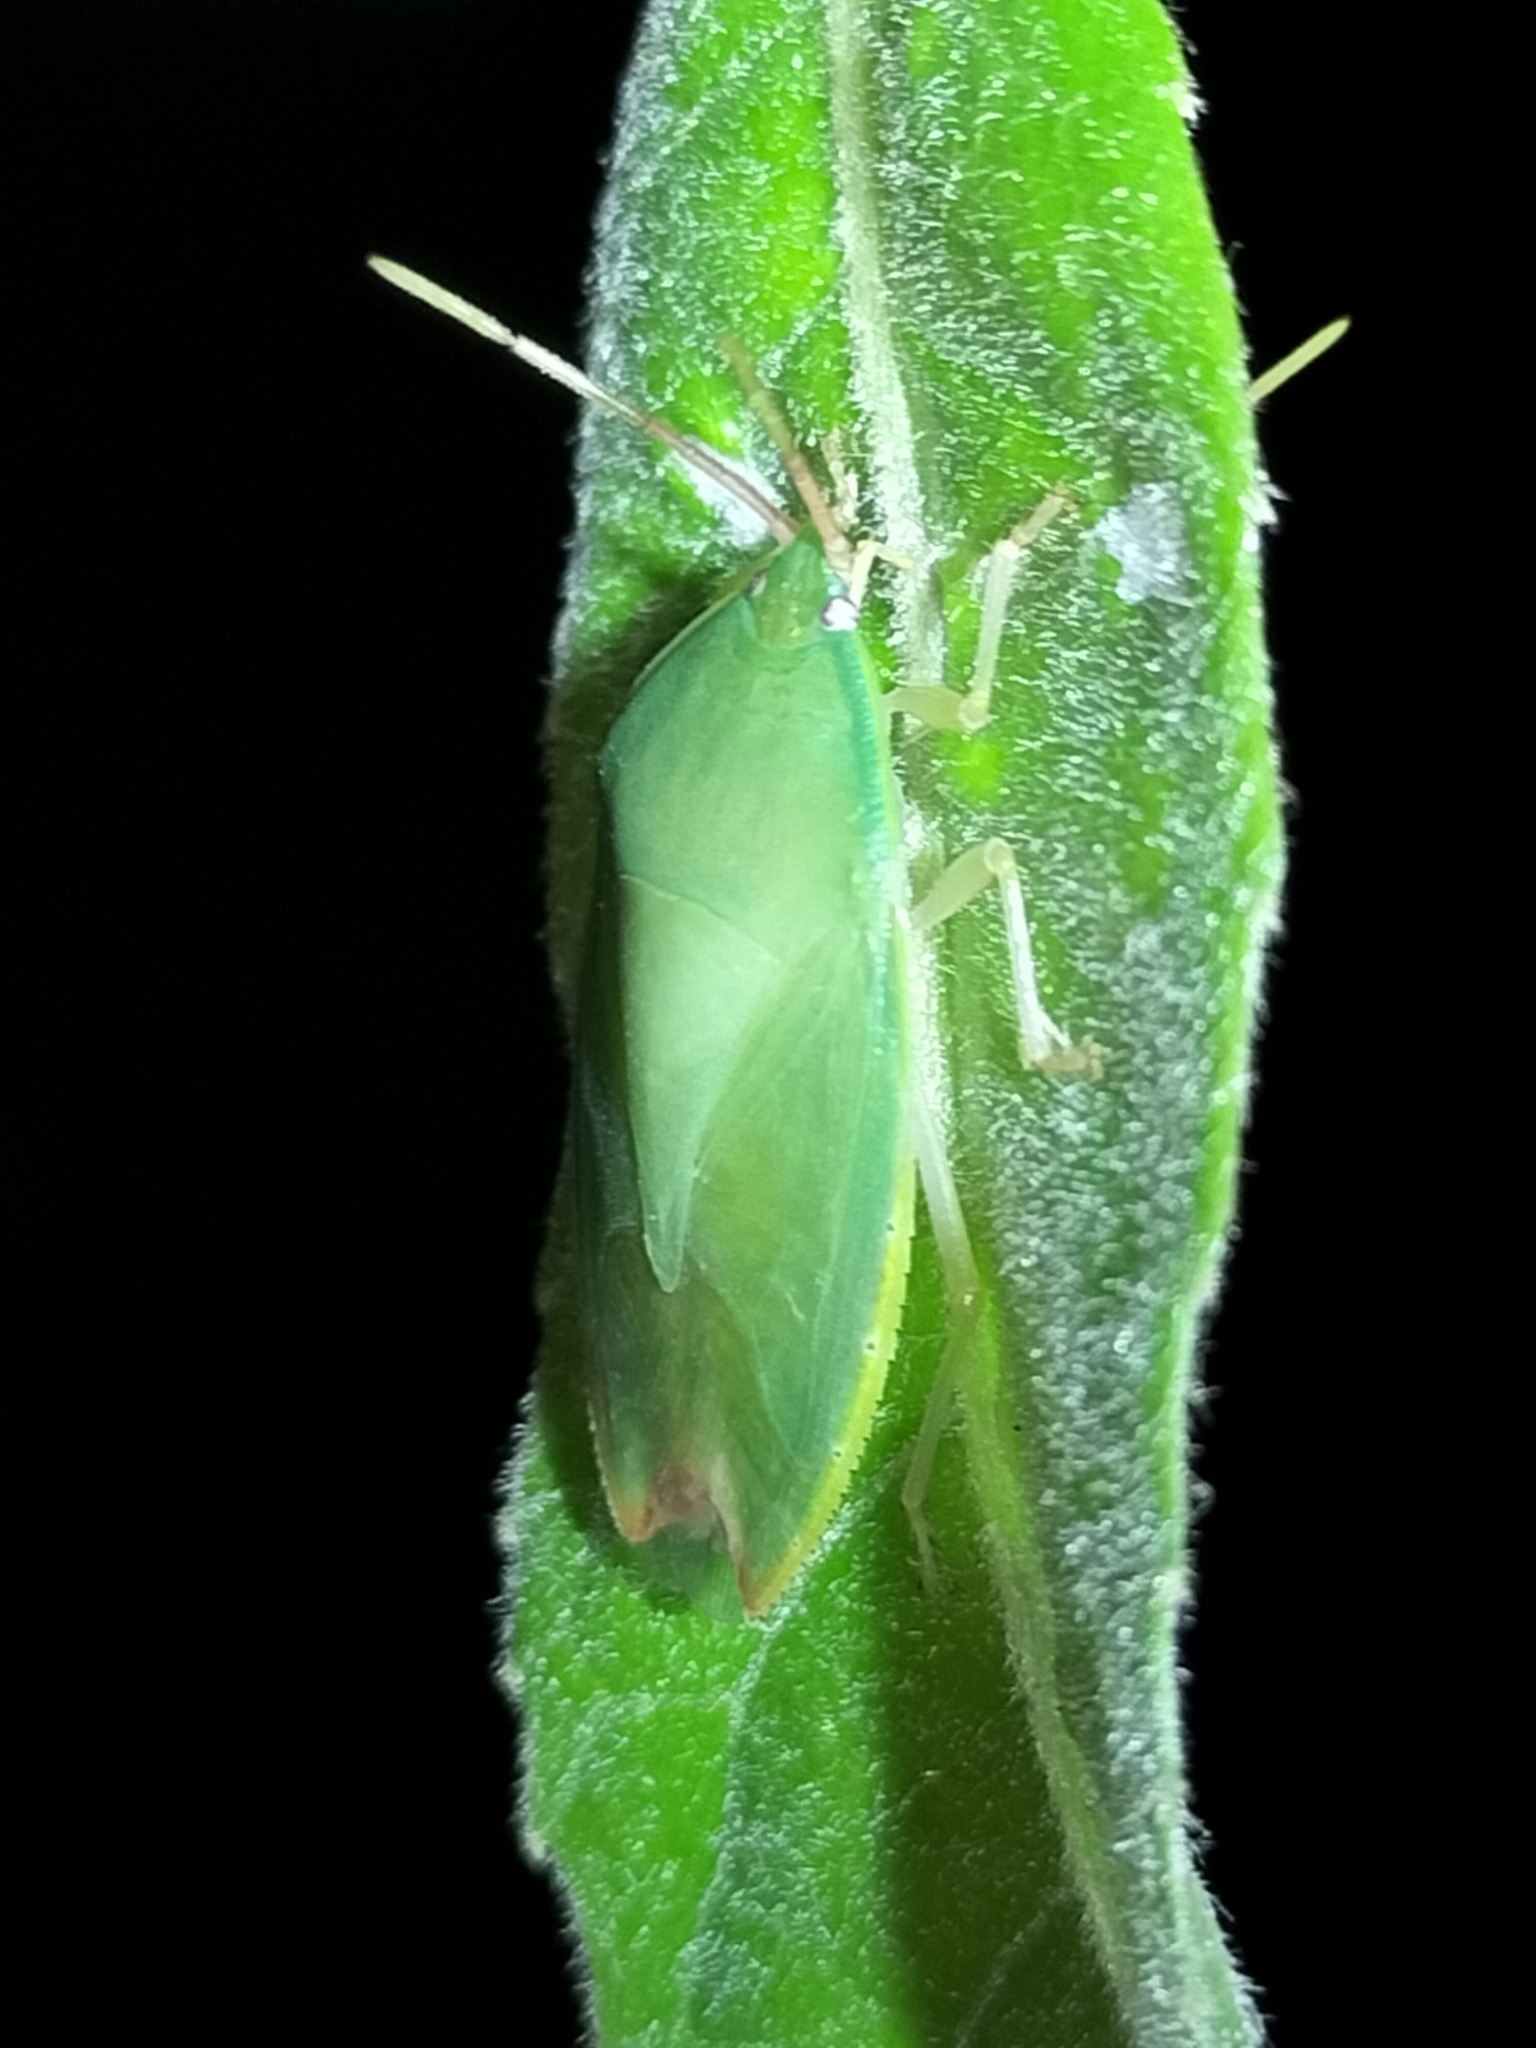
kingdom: Animalia
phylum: Arthropoda
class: Insecta
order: Hemiptera
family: Tessaratomidae
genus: Garceus
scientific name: Garceus fidelis
